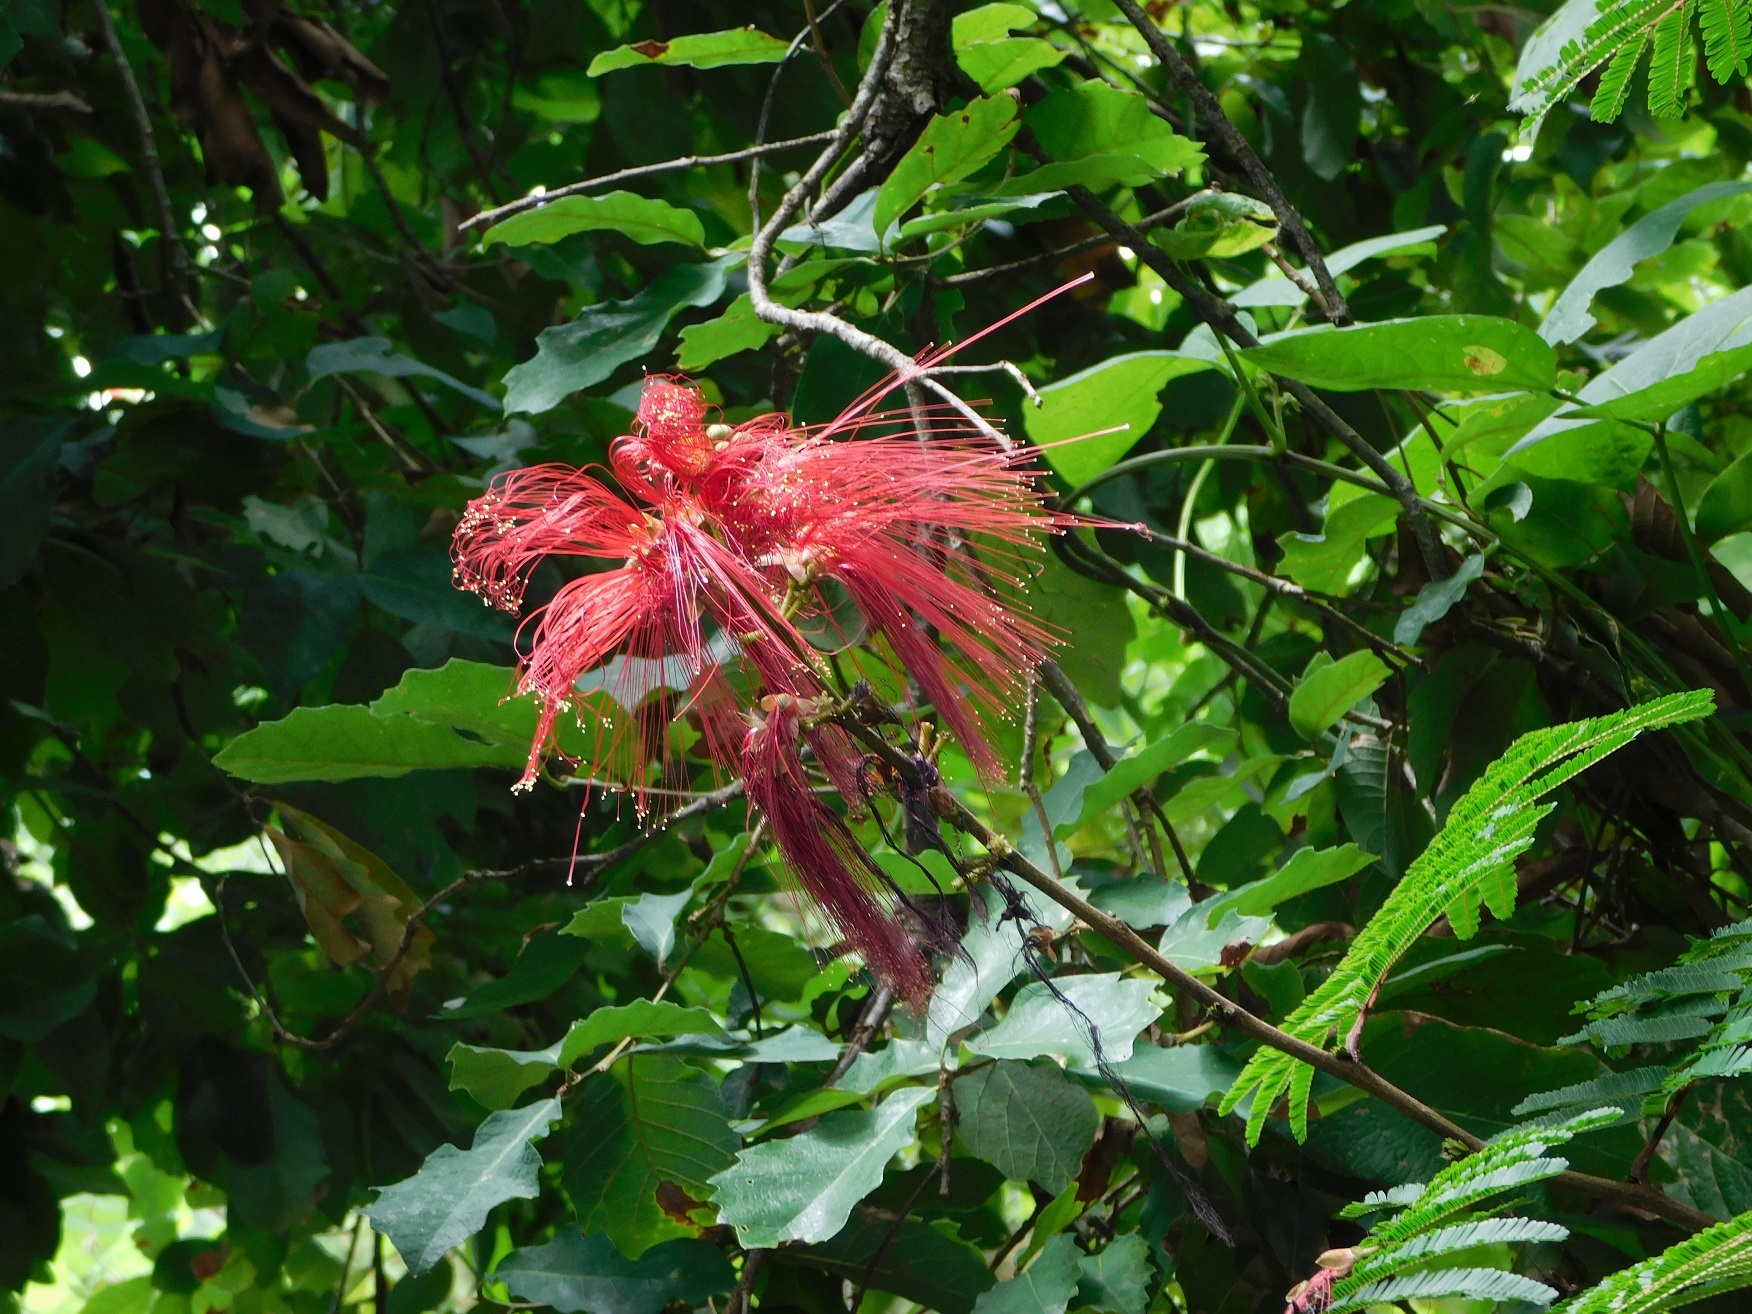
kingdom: Plantae
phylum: Tracheophyta
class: Magnoliopsida
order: Fabales
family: Fabaceae
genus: Calliandra
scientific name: Calliandra houstoniana
